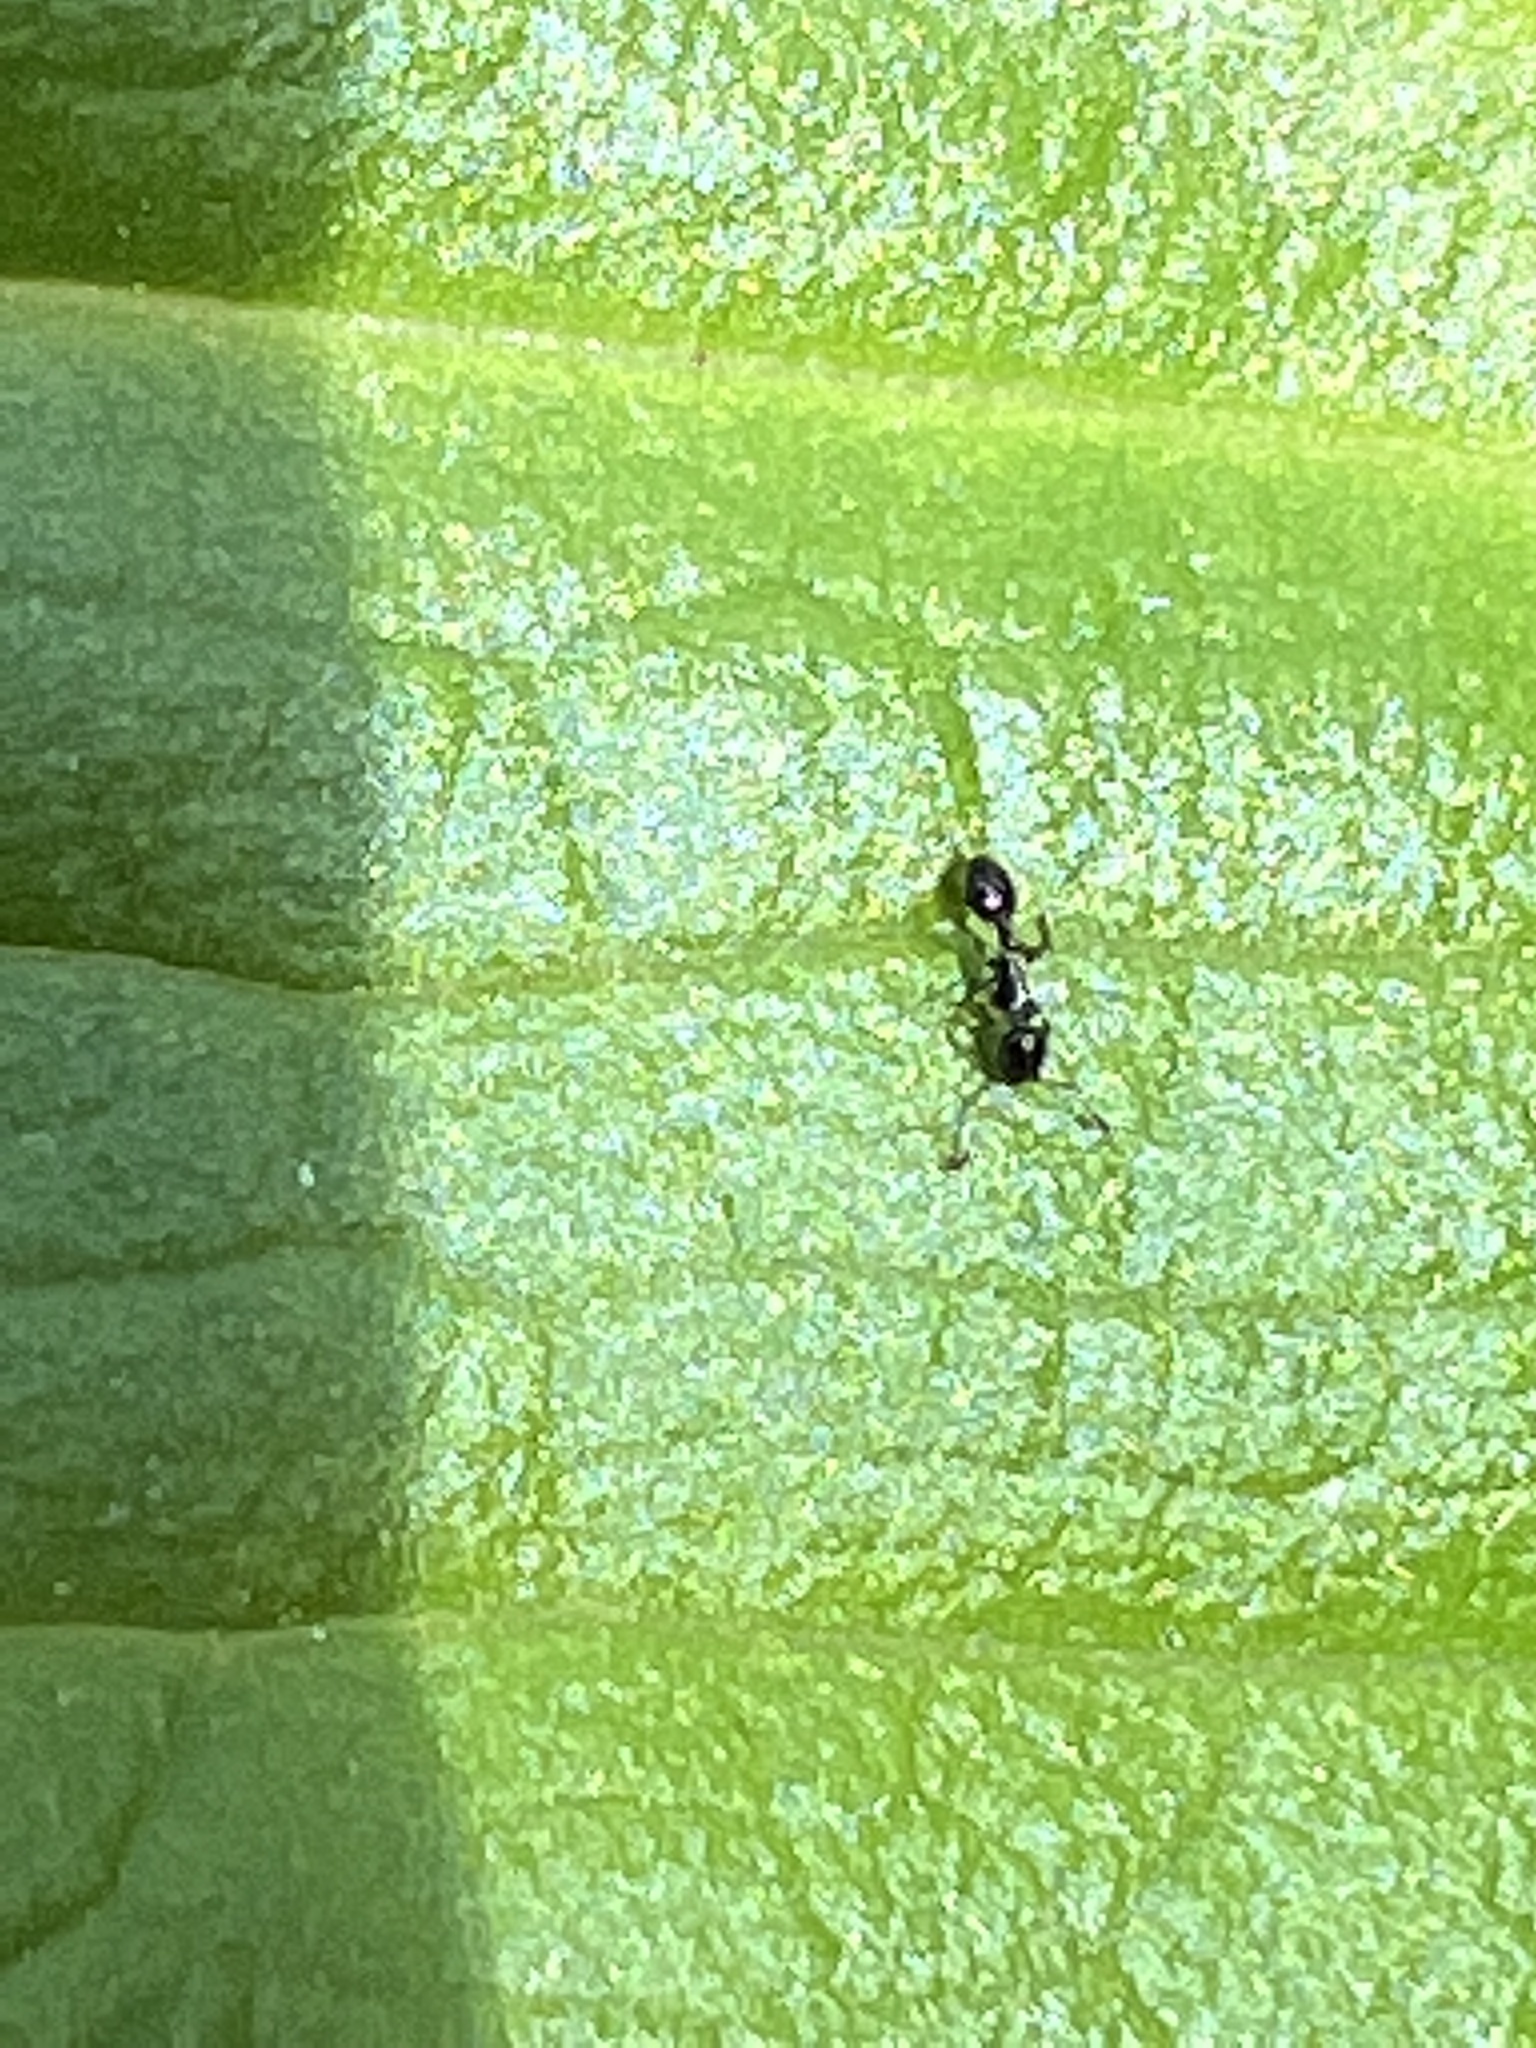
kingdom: Animalia
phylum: Arthropoda
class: Insecta
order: Hymenoptera
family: Formicidae
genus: Monomorium
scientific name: Monomorium minimum
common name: Little black ant
